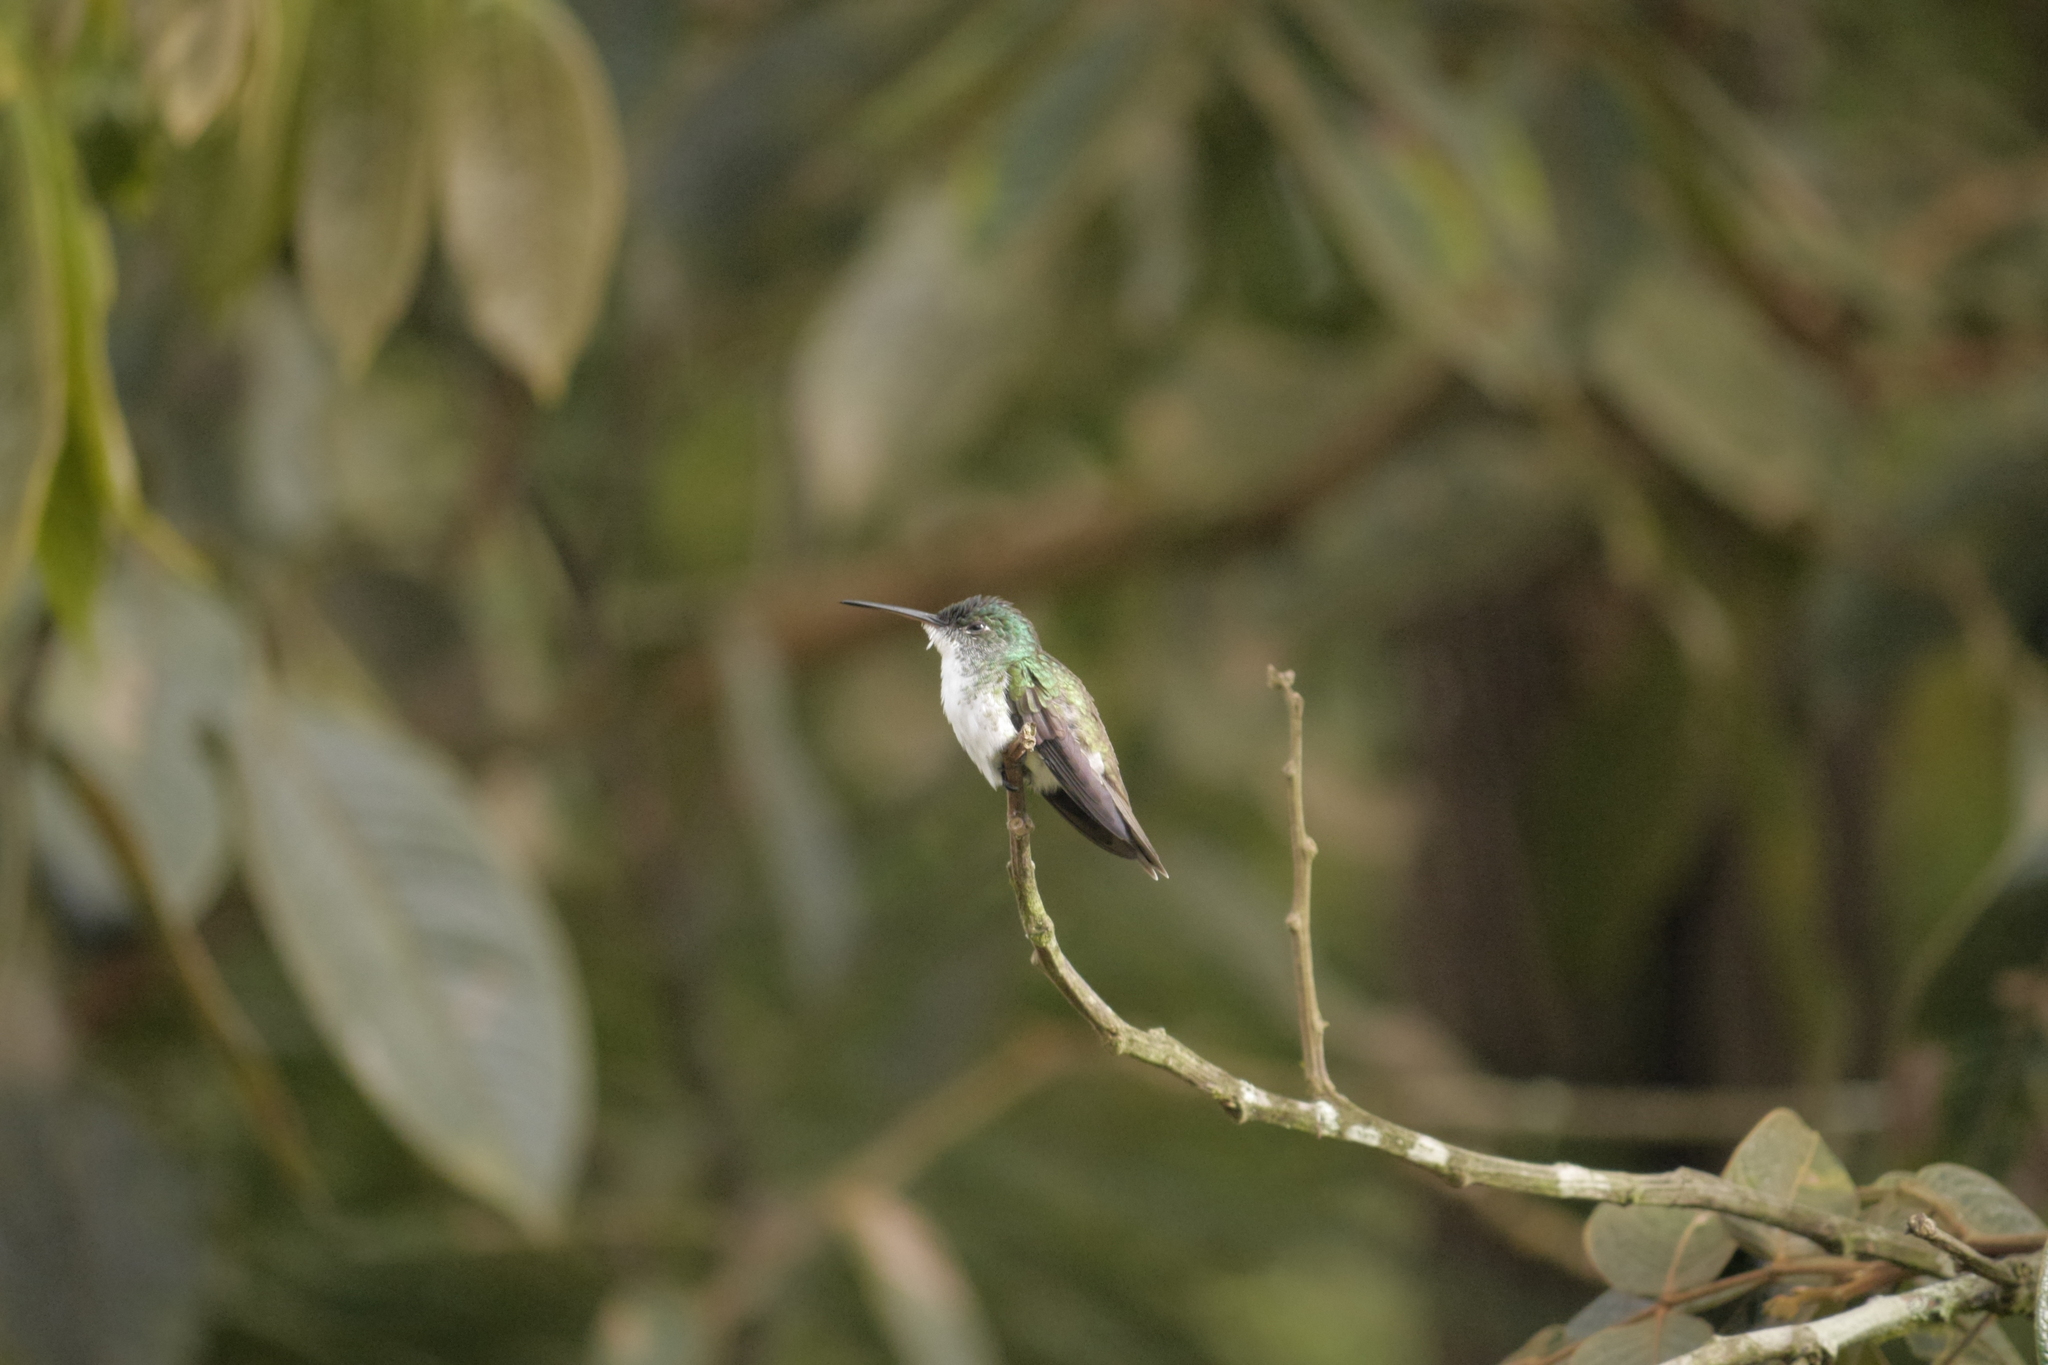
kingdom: Animalia
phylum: Chordata
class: Aves
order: Apodiformes
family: Trochilidae
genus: Uranomitra
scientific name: Uranomitra franciae
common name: Andean emerald
